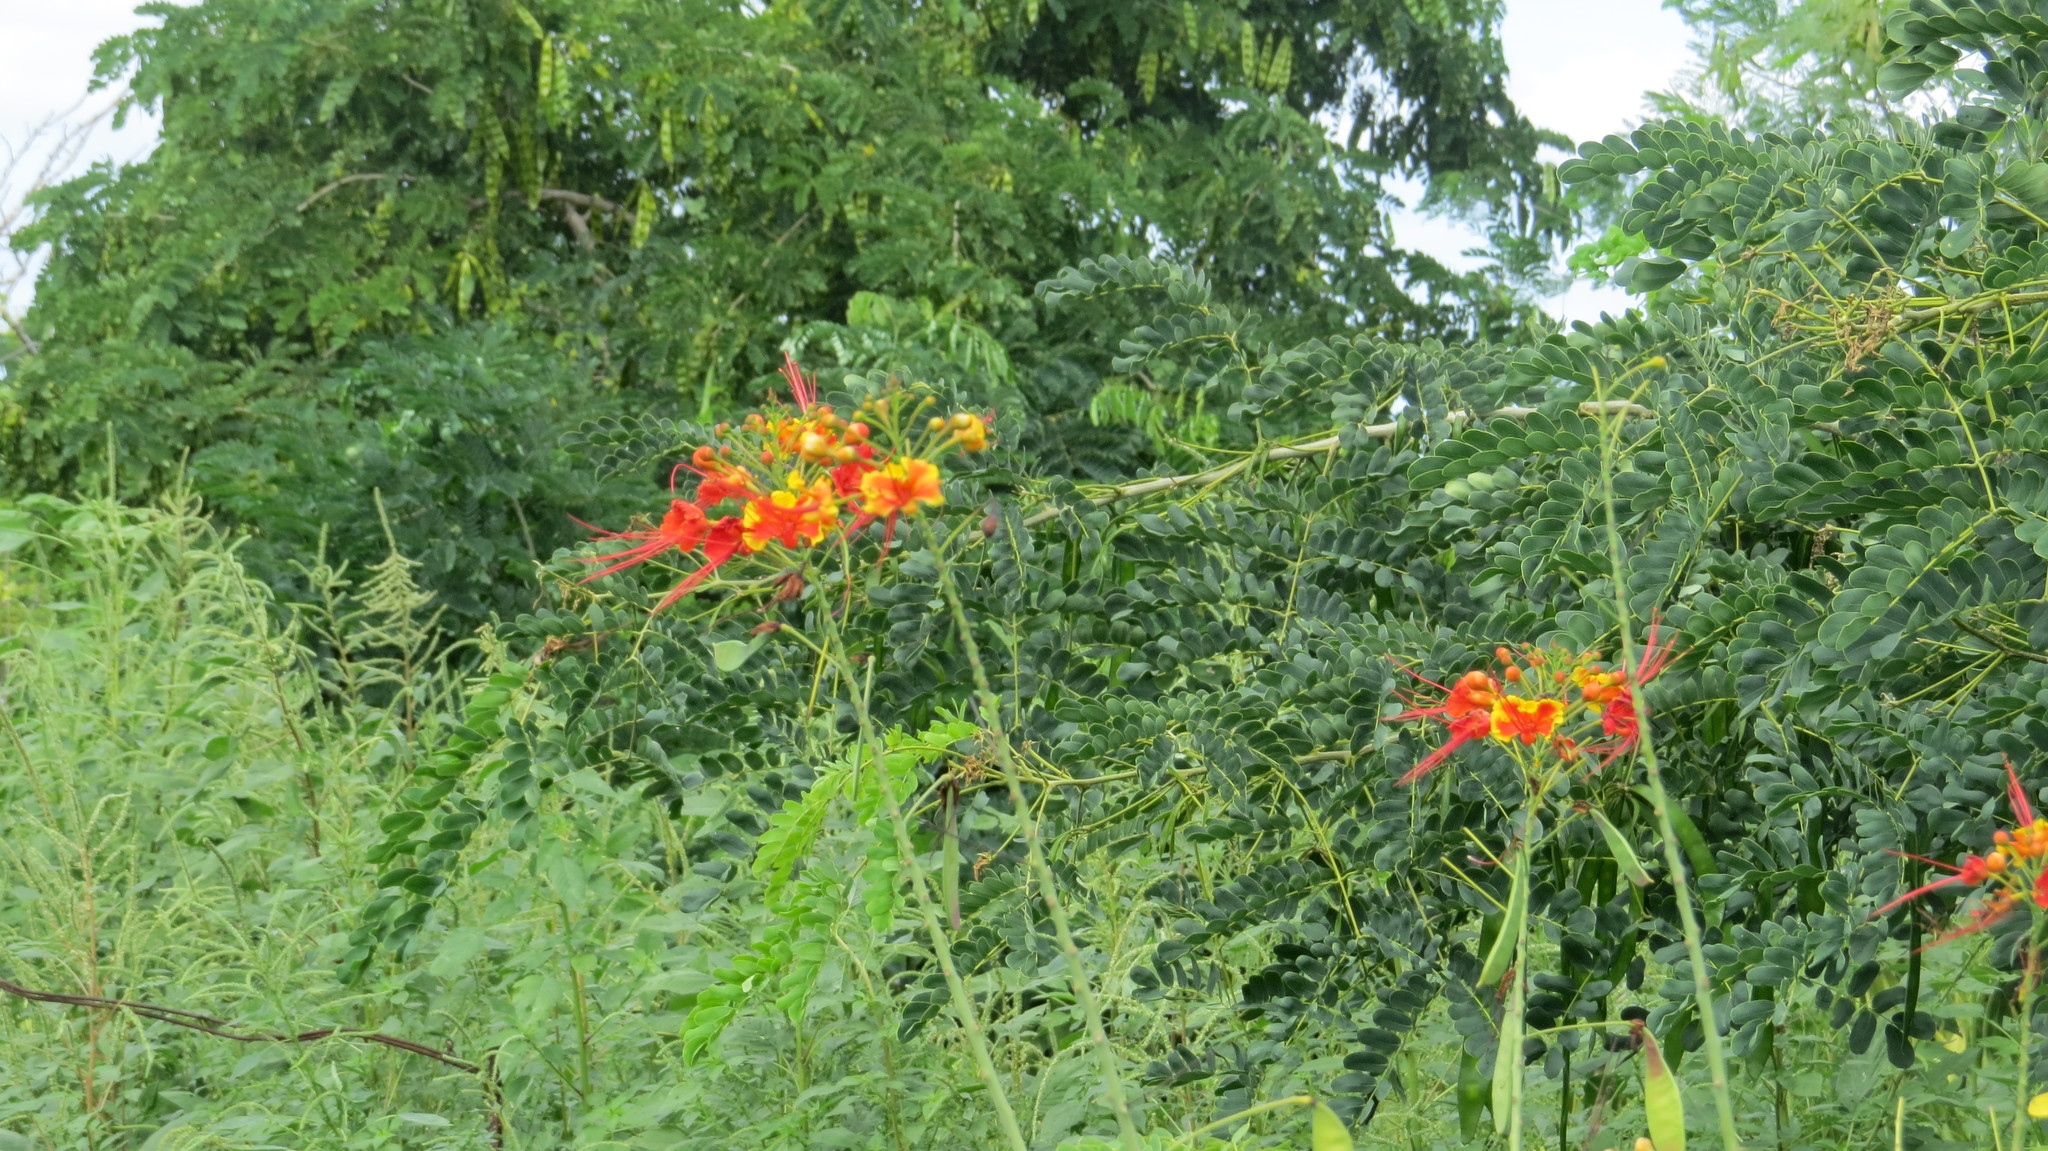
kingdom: Plantae
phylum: Tracheophyta
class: Magnoliopsida
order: Fabales
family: Fabaceae
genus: Caesalpinia
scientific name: Caesalpinia pulcherrima
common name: Pride-of-barbados
